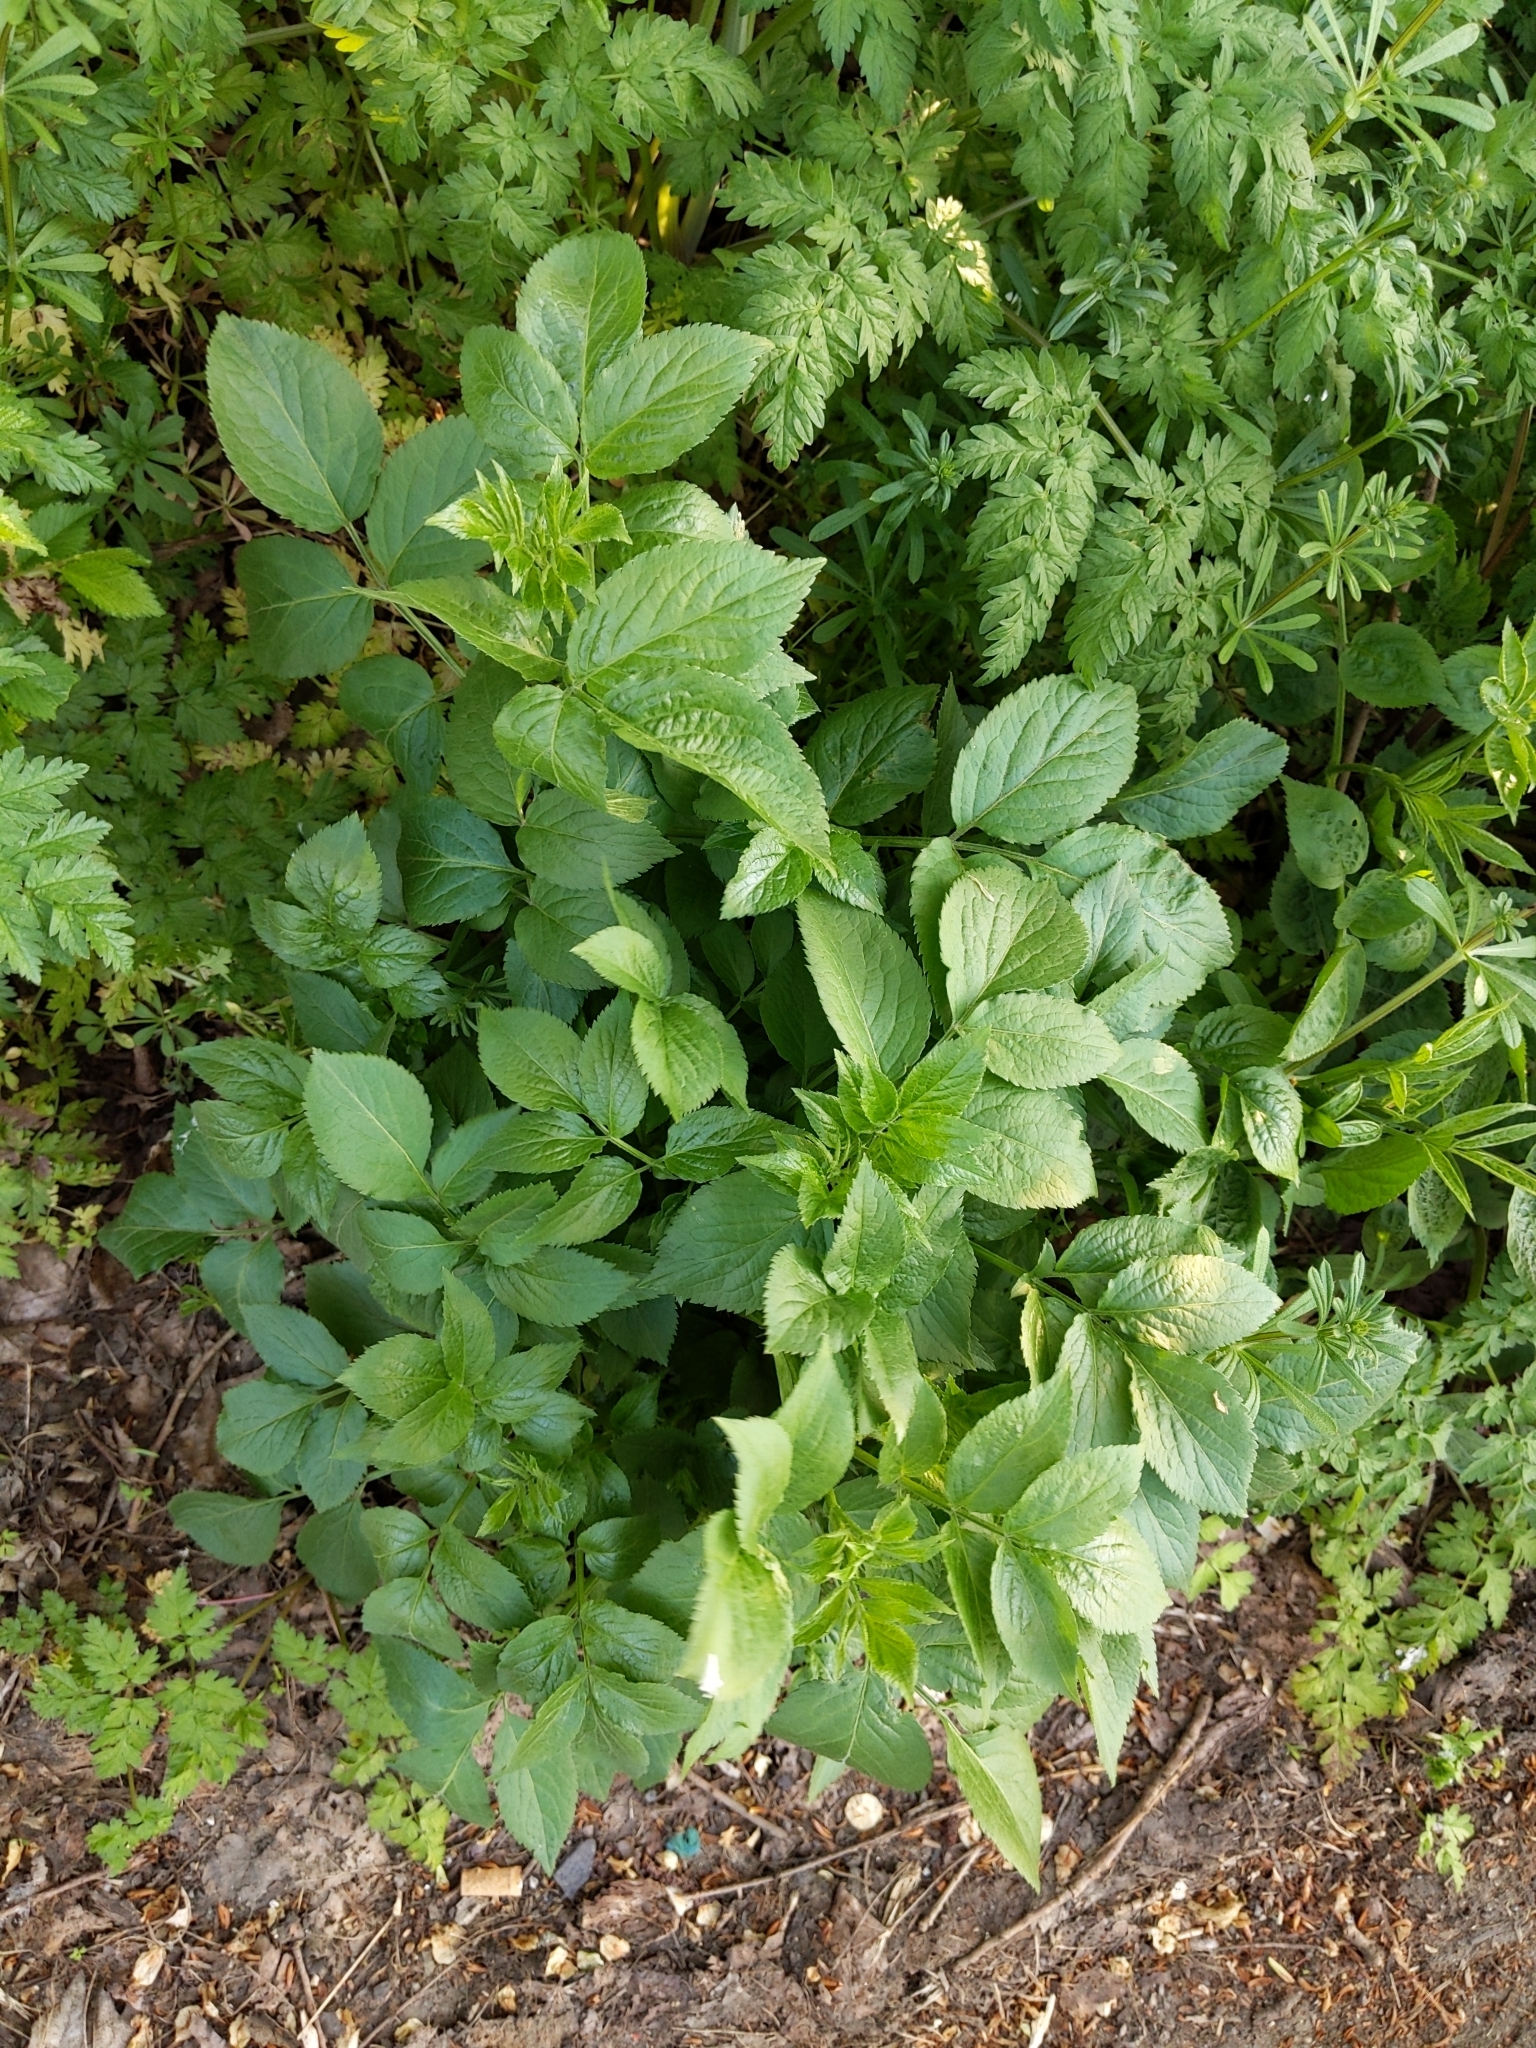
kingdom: Plantae
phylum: Tracheophyta
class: Magnoliopsida
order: Dipsacales
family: Viburnaceae
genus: Sambucus
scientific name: Sambucus nigra
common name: Elder
